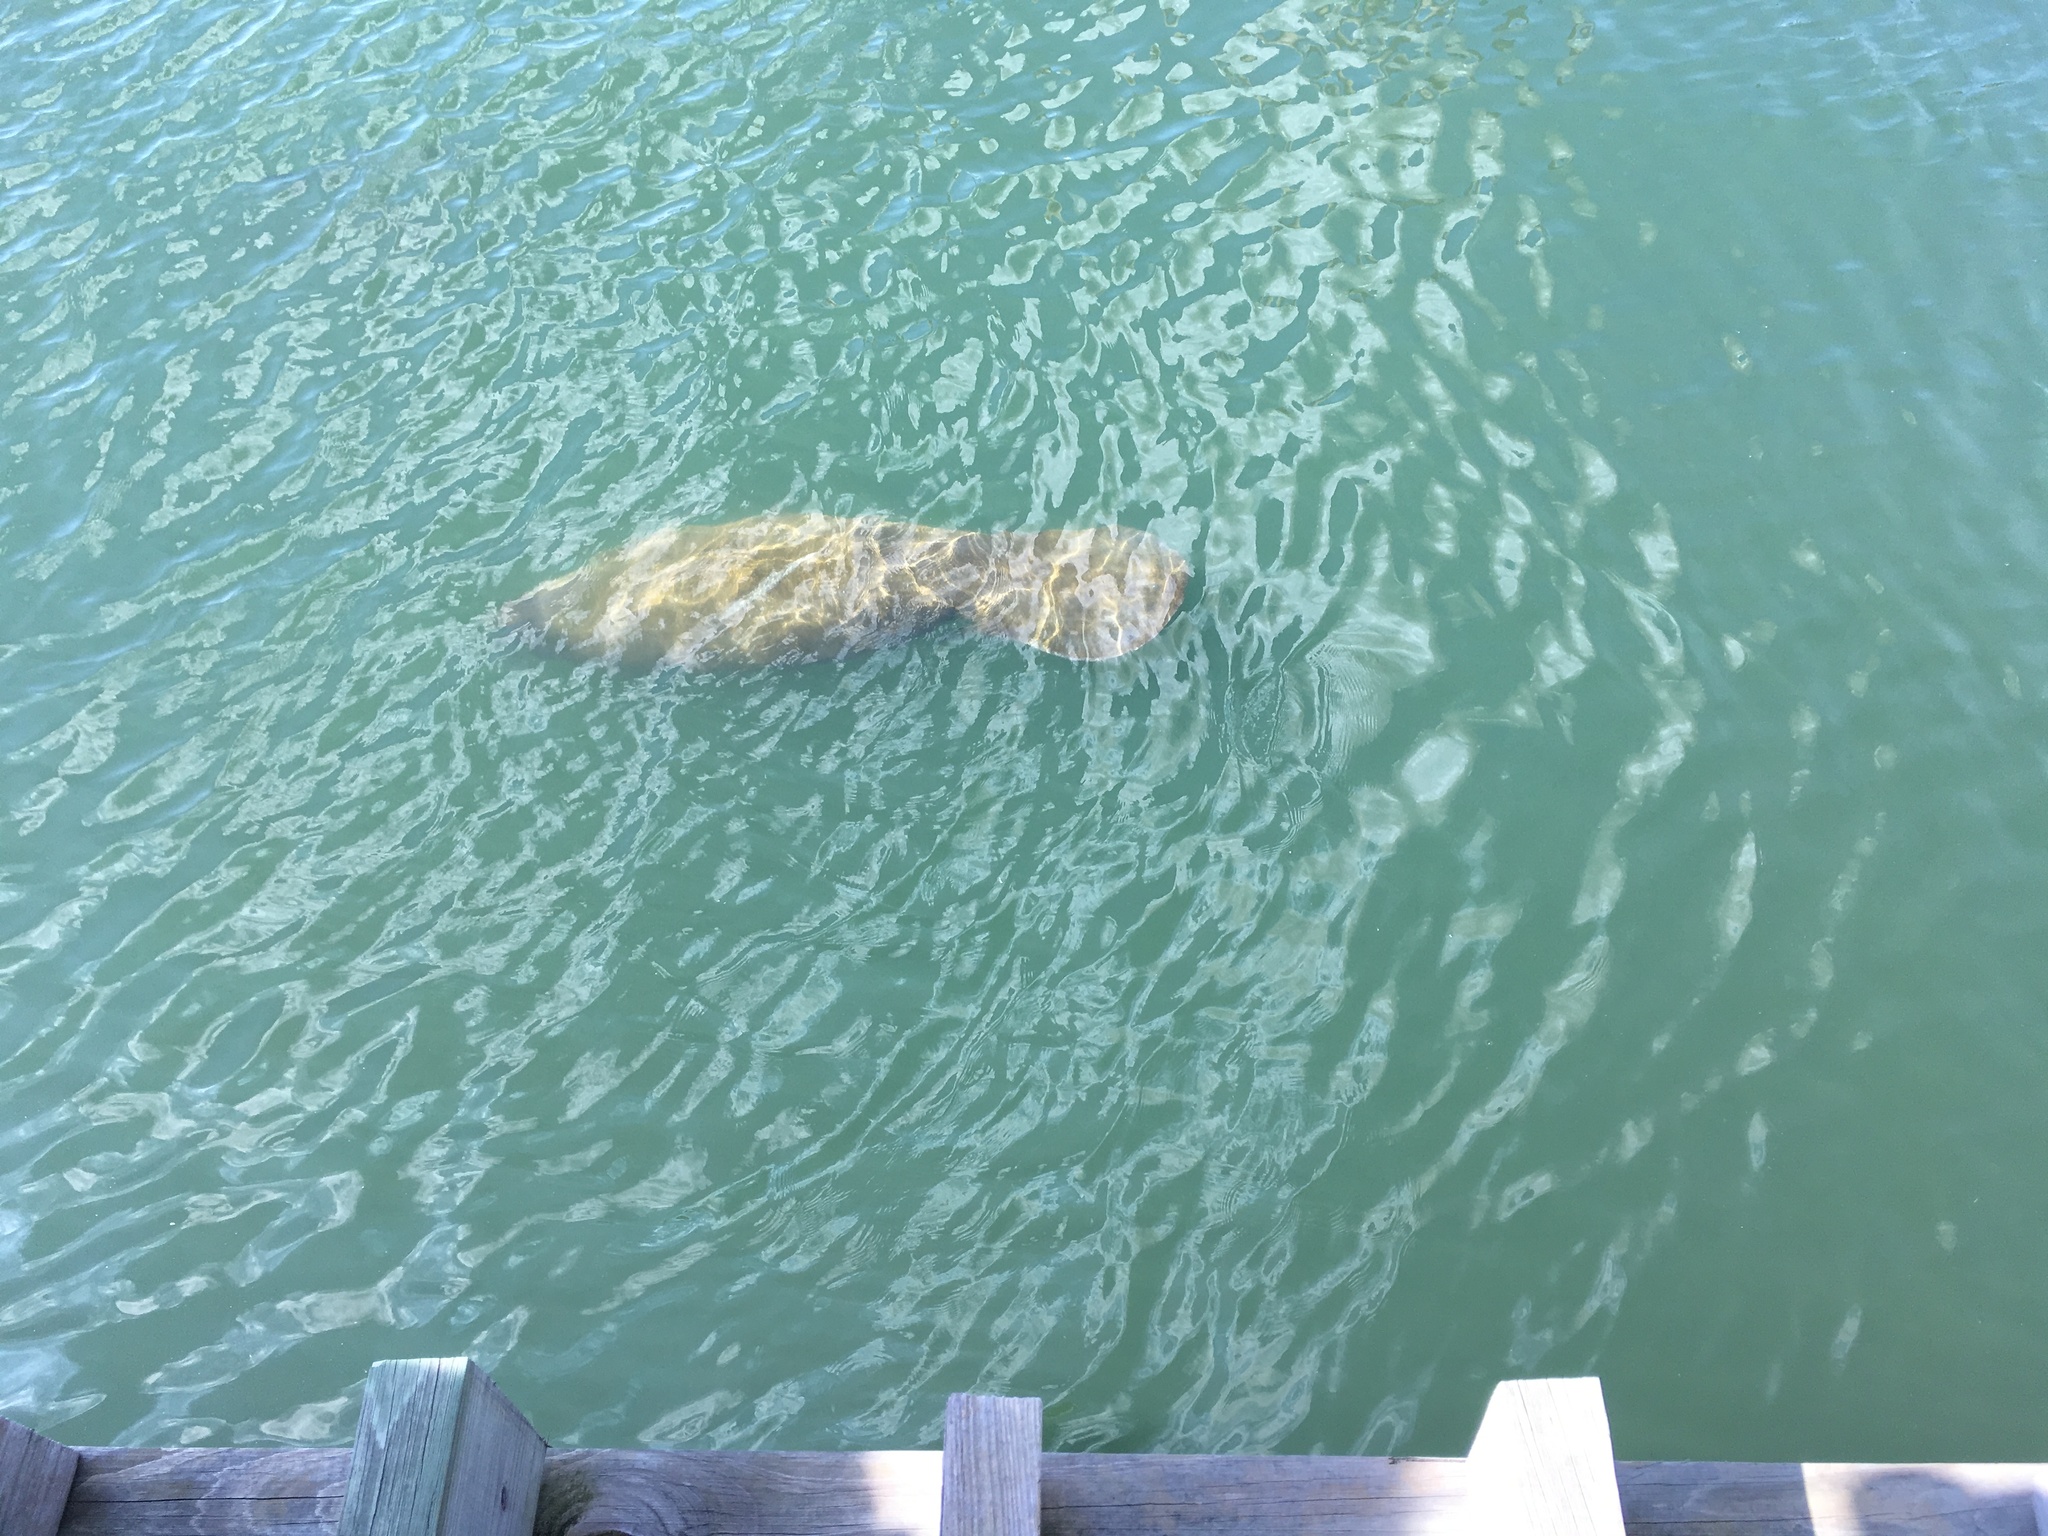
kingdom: Animalia
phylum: Chordata
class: Mammalia
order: Sirenia
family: Trichechidae
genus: Trichechus
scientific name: Trichechus manatus
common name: West indian manatee
